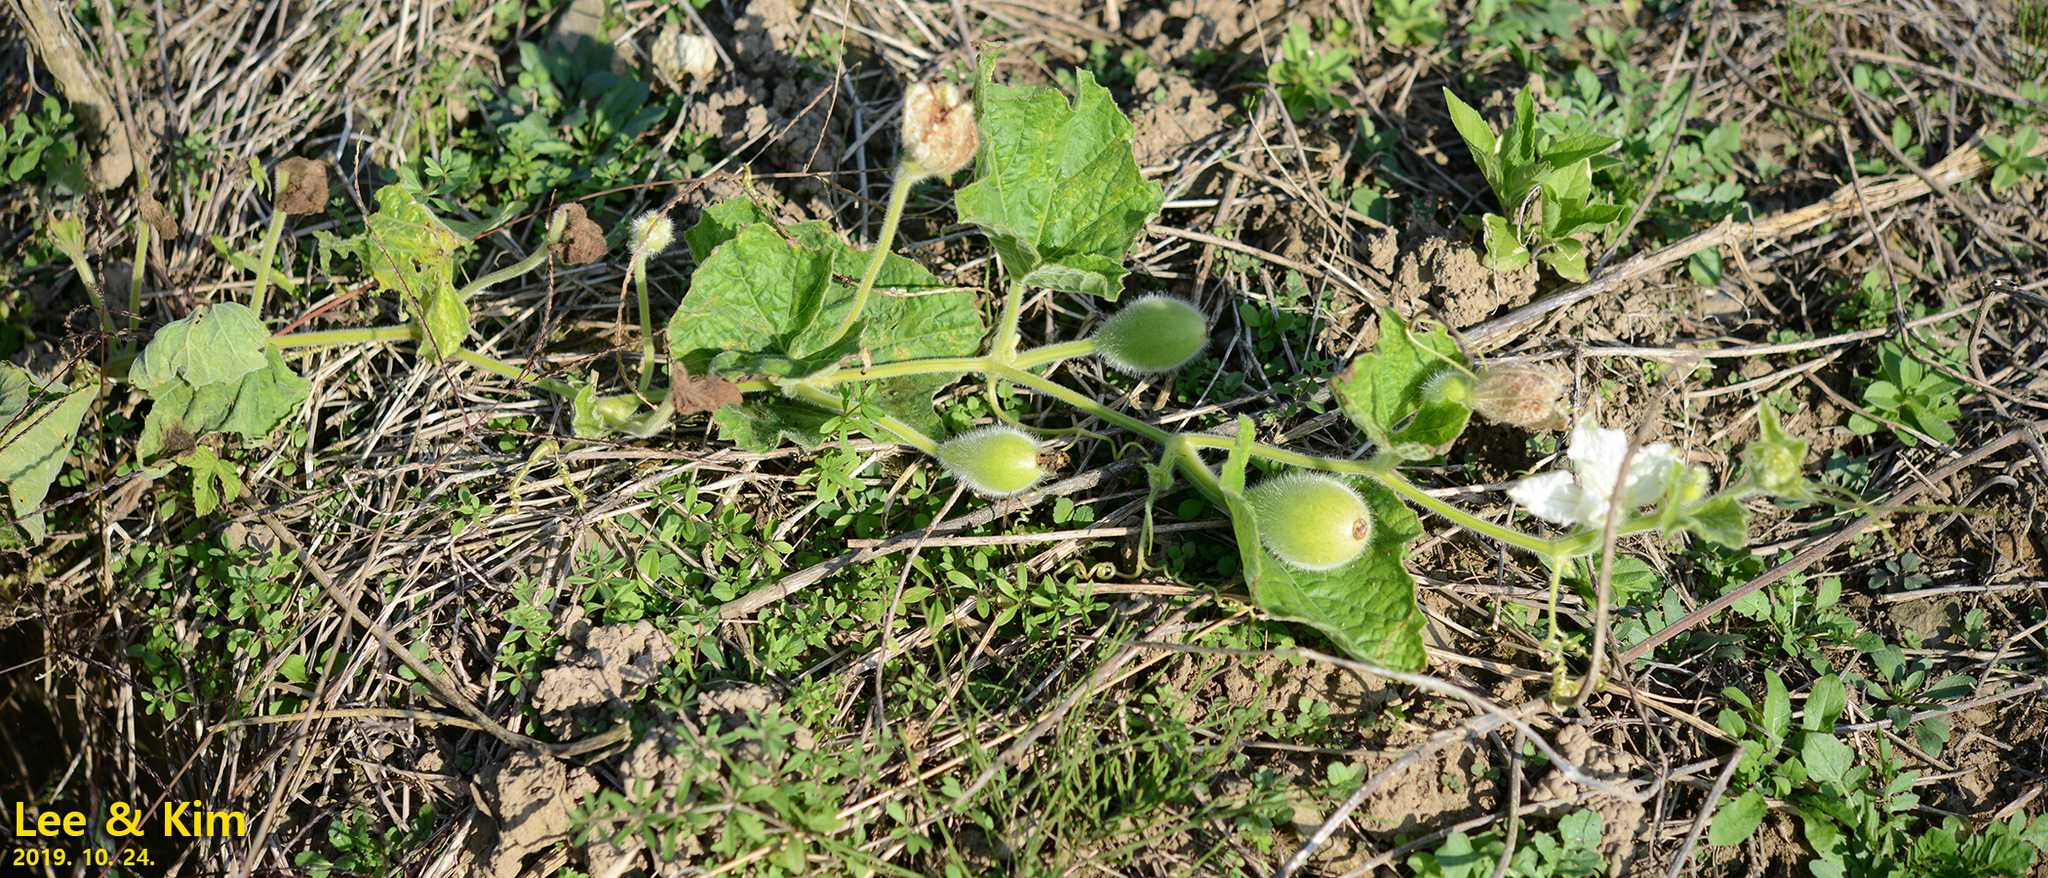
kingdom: Plantae
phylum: Tracheophyta
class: Magnoliopsida
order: Cucurbitales
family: Cucurbitaceae
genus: Lagenaria
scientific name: Lagenaria siceraria
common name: Bottle gourd
